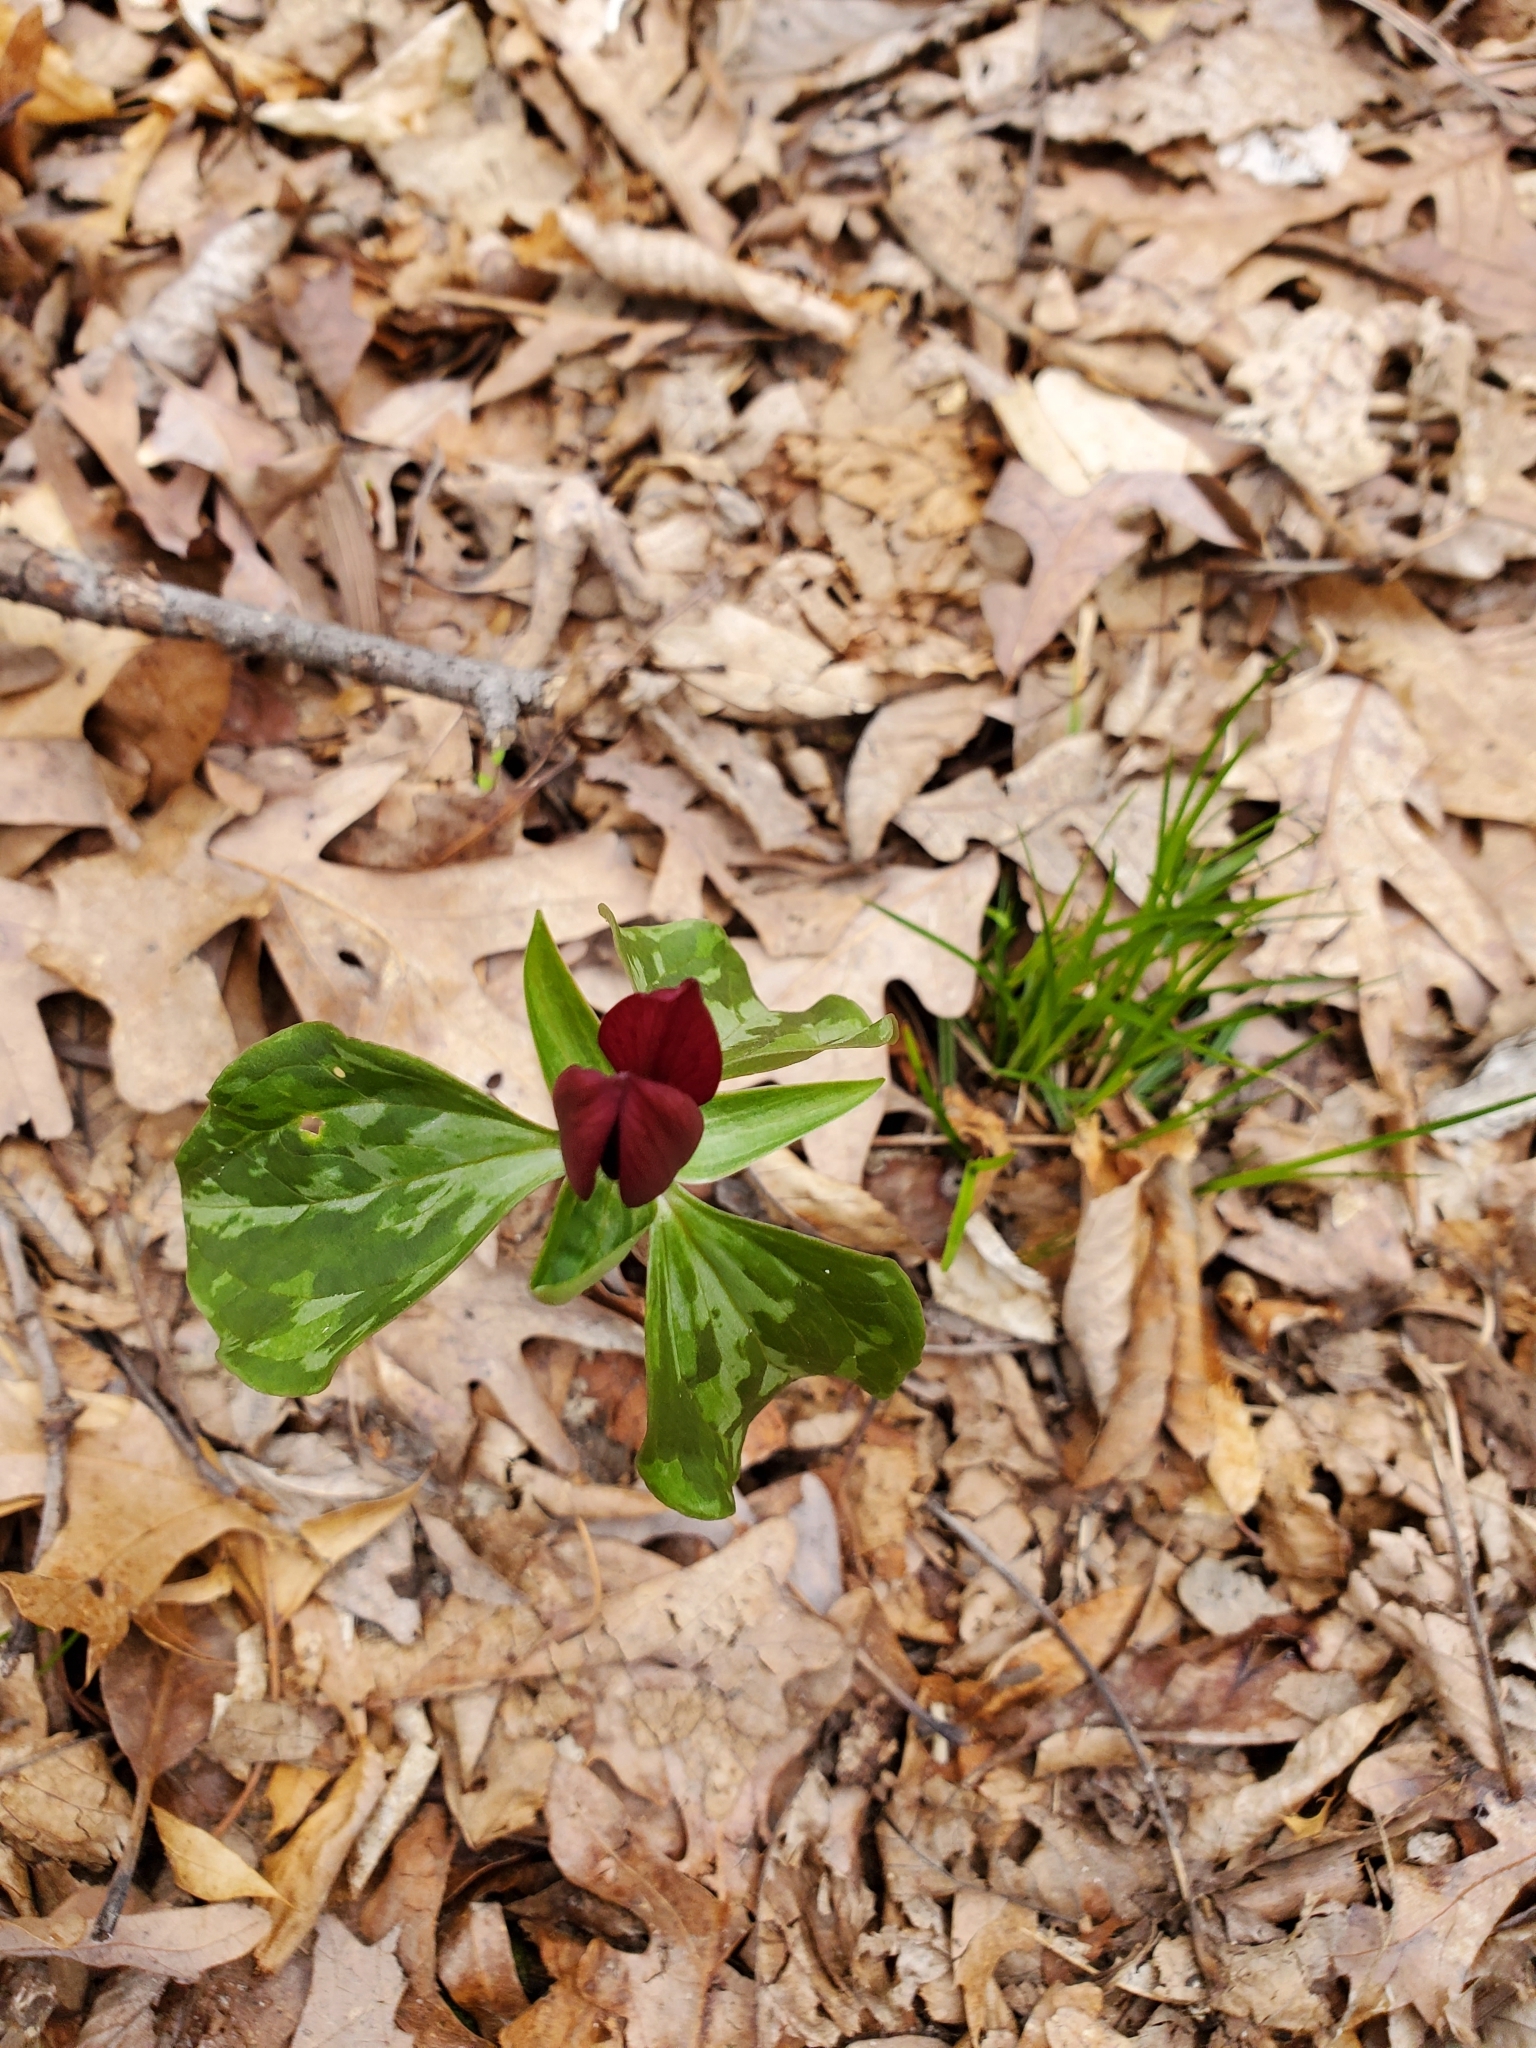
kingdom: Plantae
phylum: Tracheophyta
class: Liliopsida
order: Liliales
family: Melanthiaceae
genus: Trillium
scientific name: Trillium recurvatum
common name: Bloody butcher
